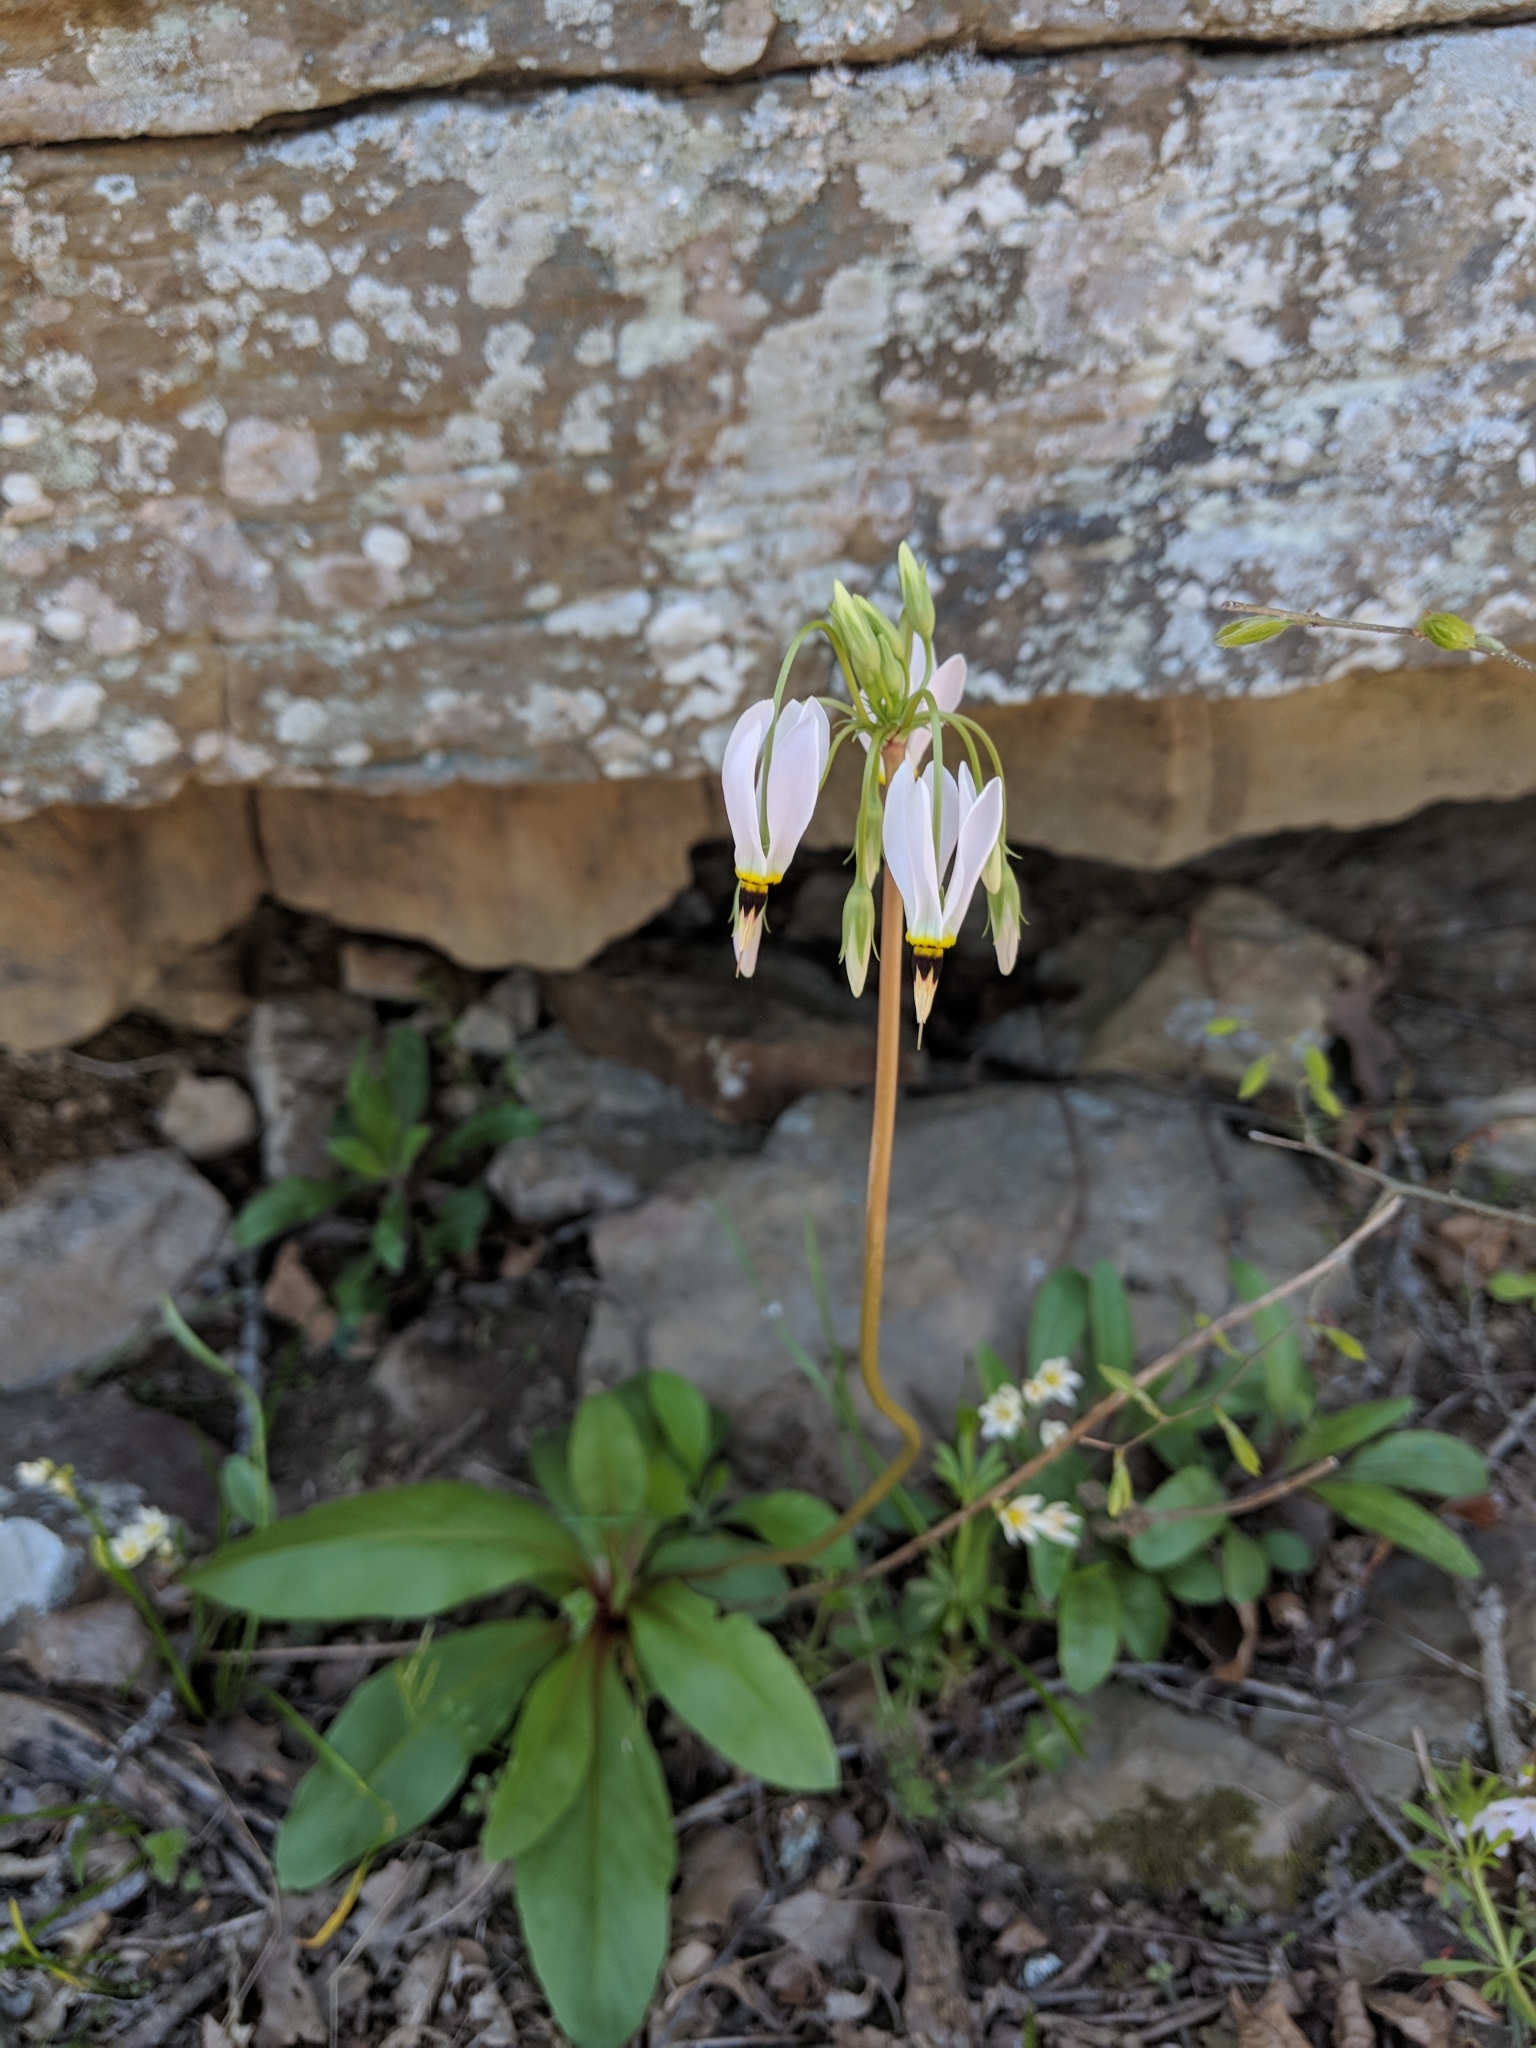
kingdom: Plantae
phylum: Tracheophyta
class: Magnoliopsida
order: Ericales
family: Primulaceae
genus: Dodecatheon
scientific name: Dodecatheon meadia
